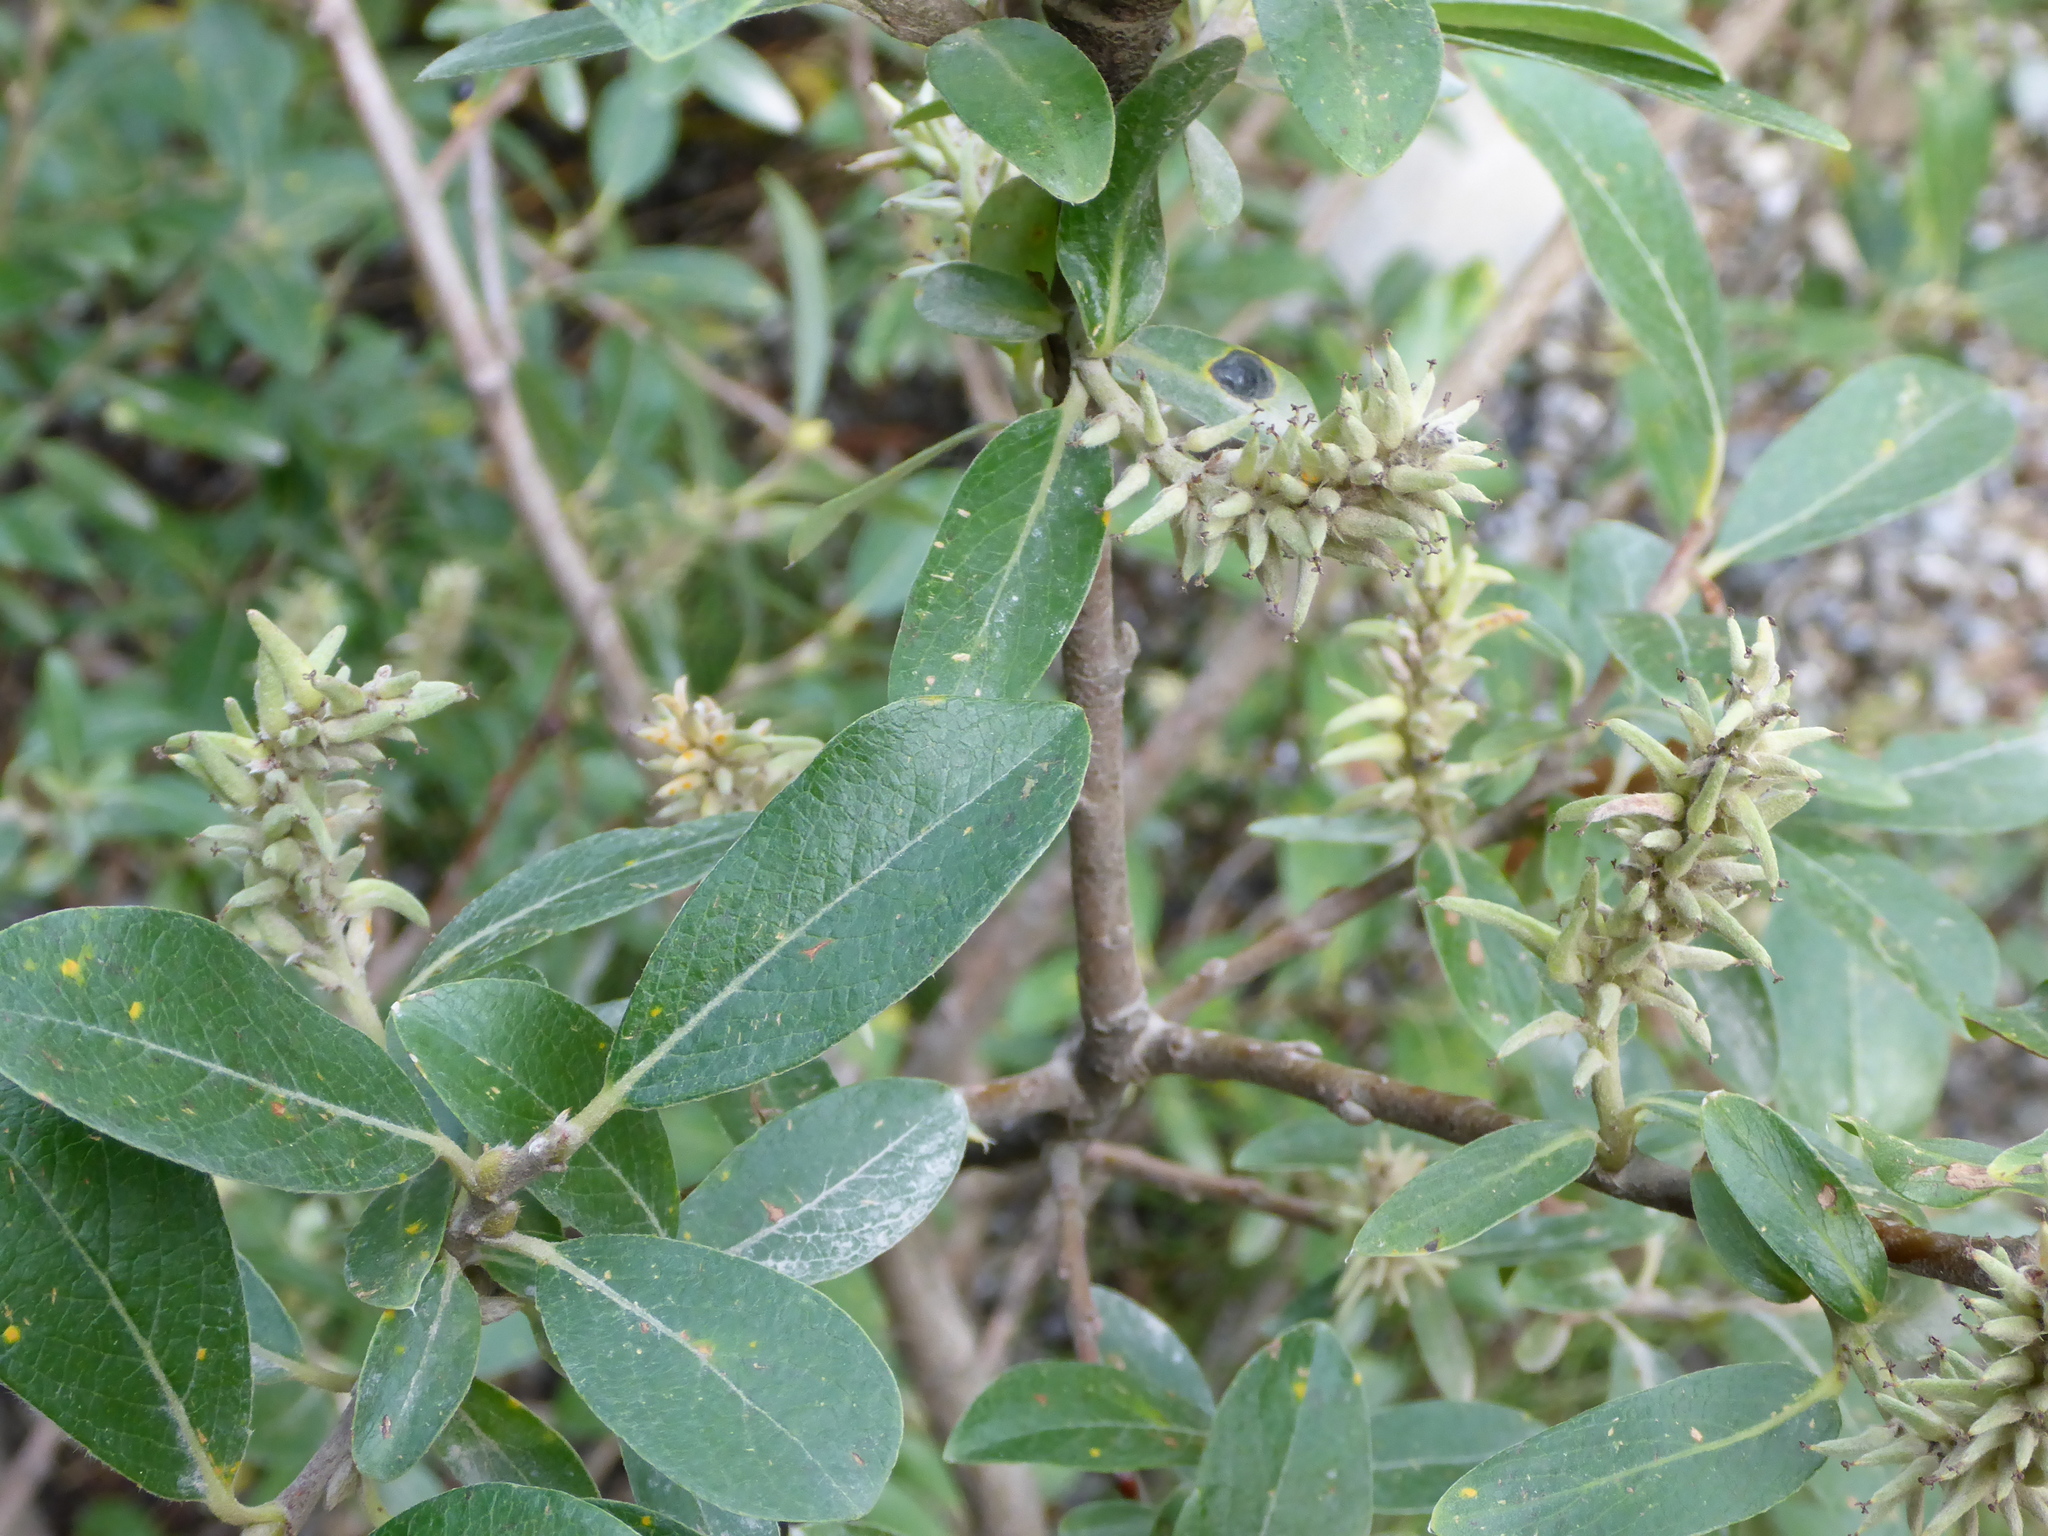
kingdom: Plantae
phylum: Tracheophyta
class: Magnoliopsida
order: Malpighiales
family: Salicaceae
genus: Salix
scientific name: Salix glauca
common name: Glaucous willow
